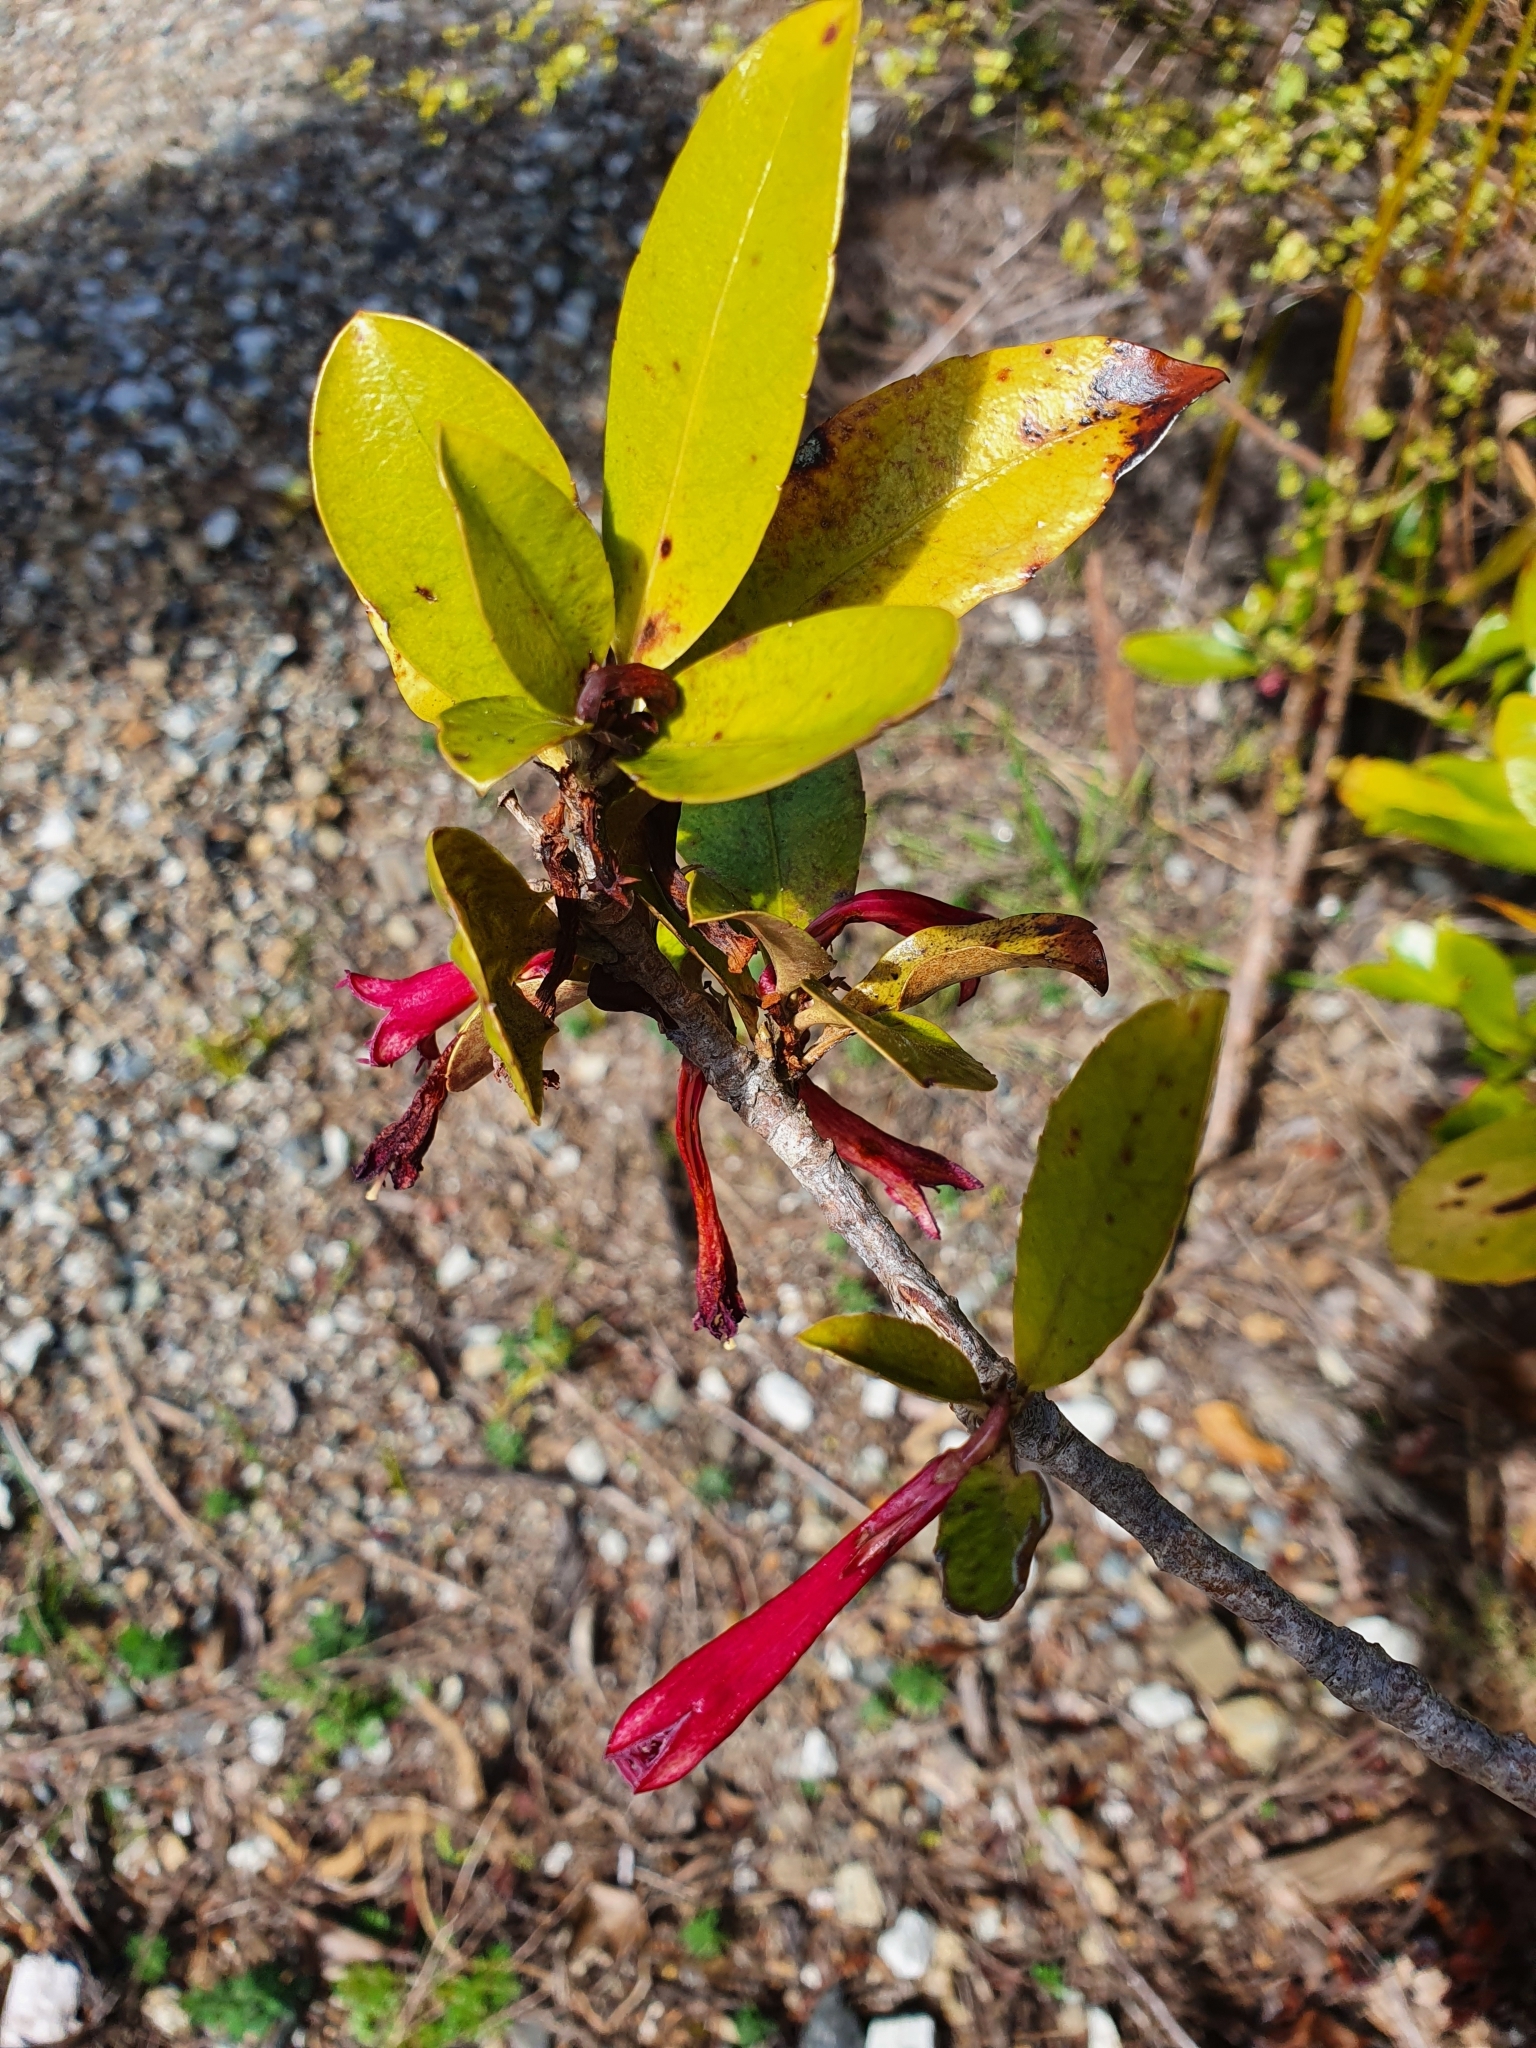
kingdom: Plantae
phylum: Tracheophyta
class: Magnoliopsida
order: Asterales
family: Alseuosmiaceae
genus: Alseuosmia
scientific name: Alseuosmia macrophylla
